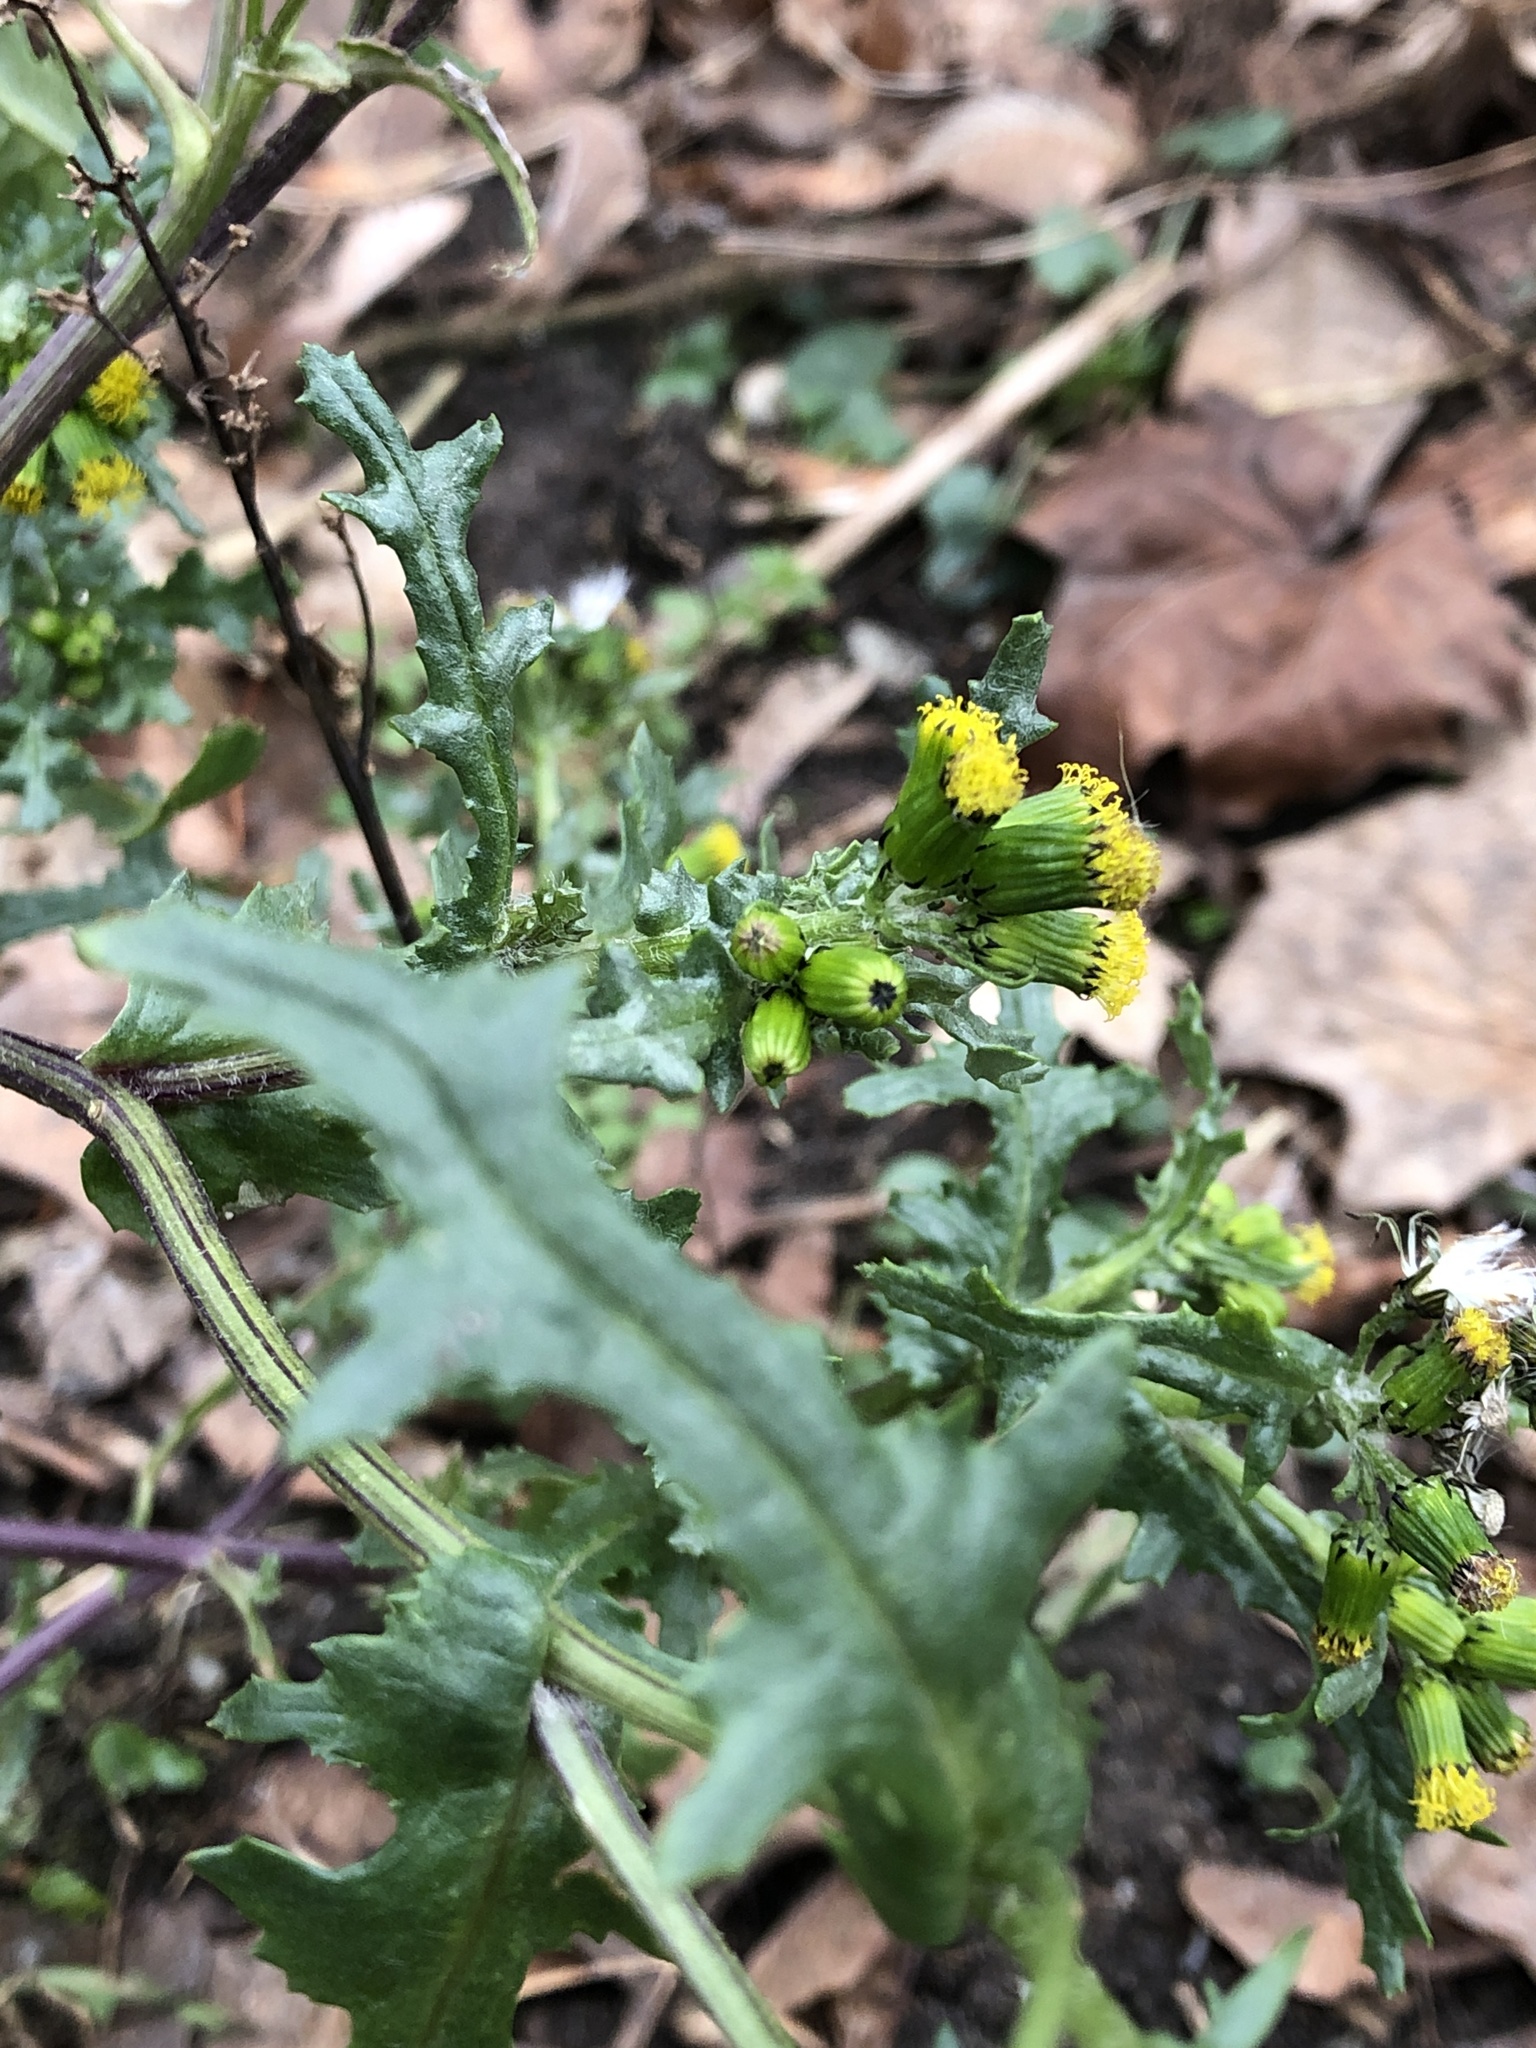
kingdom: Plantae
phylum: Tracheophyta
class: Magnoliopsida
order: Asterales
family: Asteraceae
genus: Senecio
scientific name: Senecio vulgaris
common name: Old-man-in-the-spring
